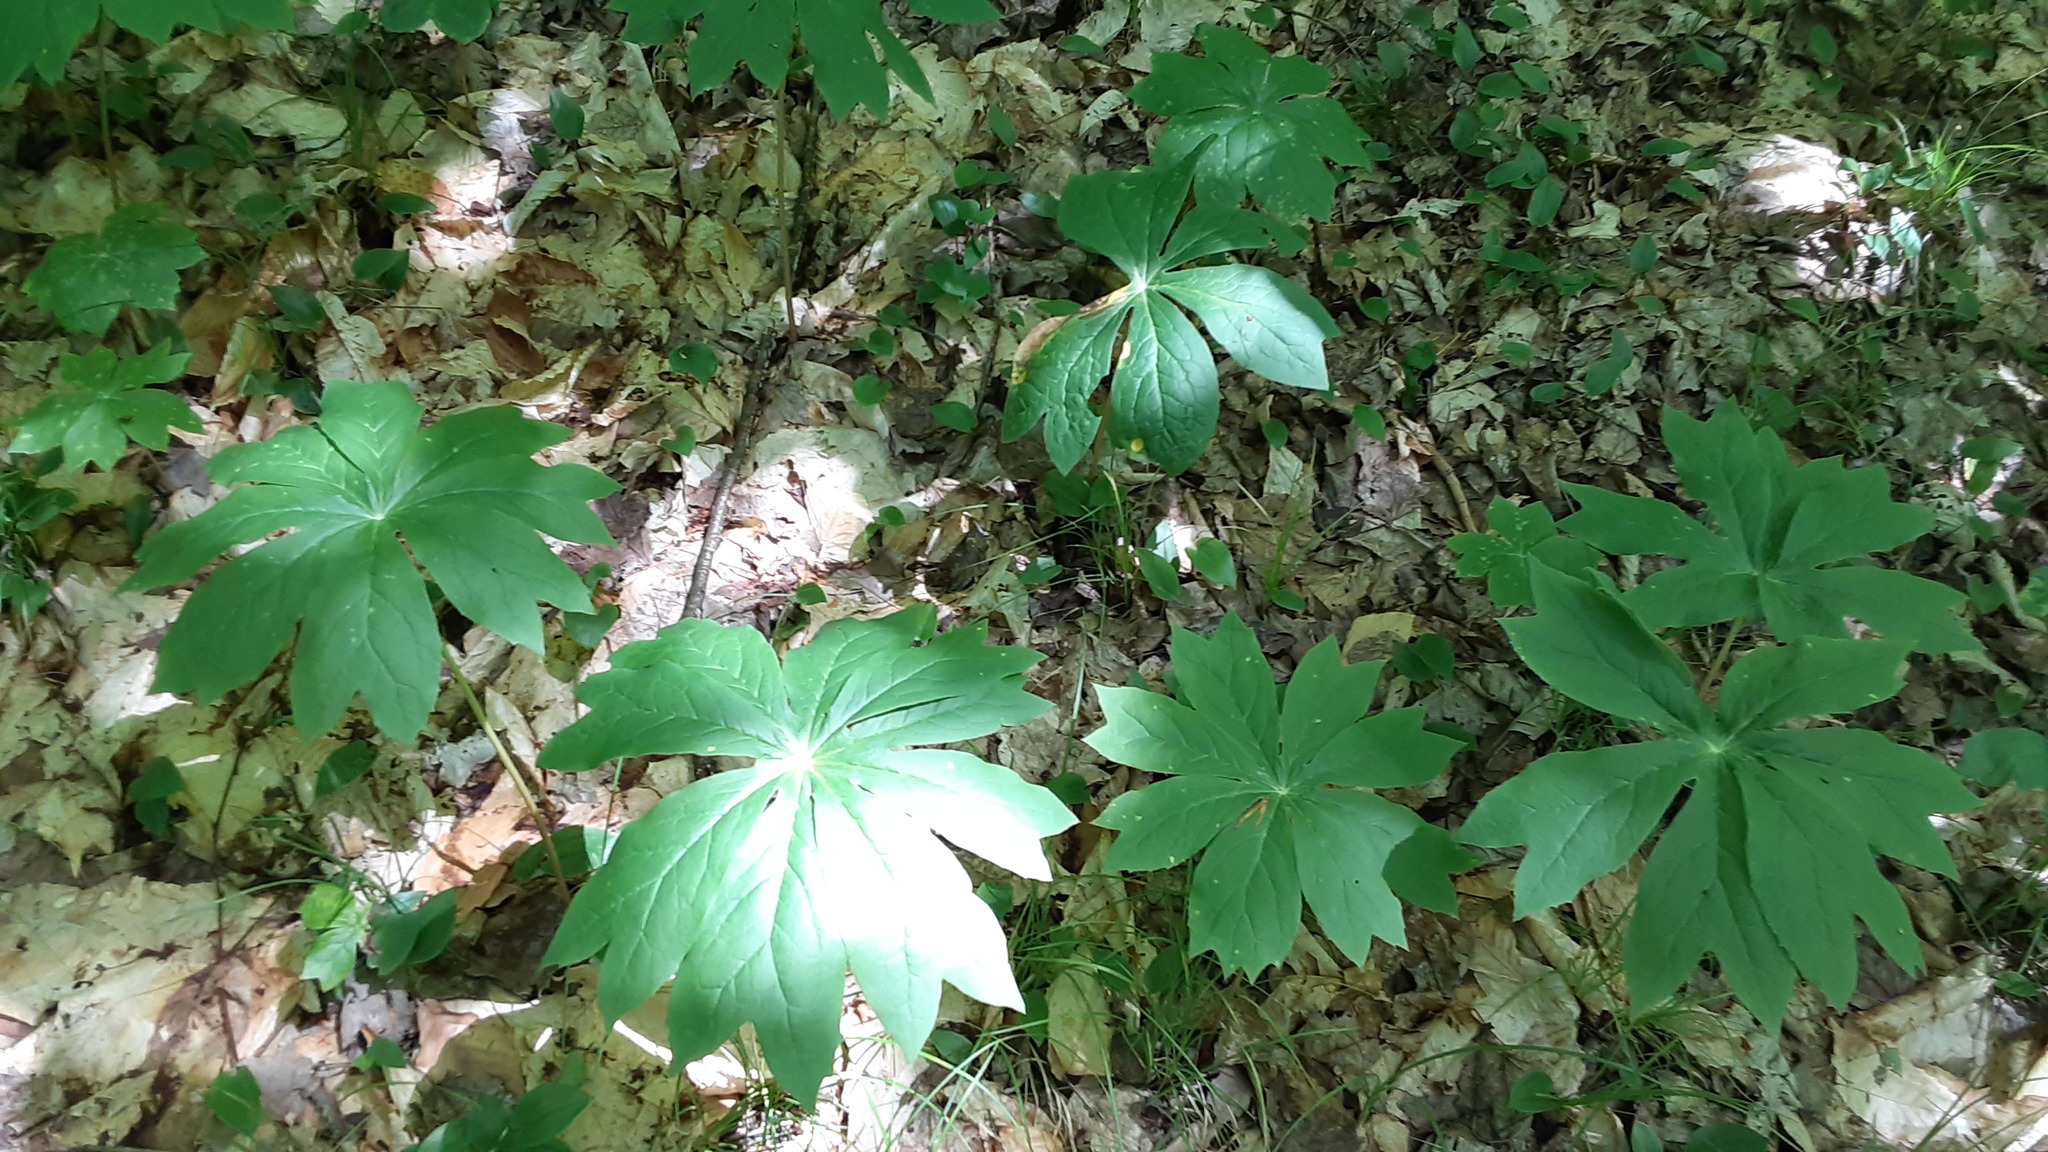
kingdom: Plantae
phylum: Tracheophyta
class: Magnoliopsida
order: Ranunculales
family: Berberidaceae
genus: Podophyllum
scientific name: Podophyllum peltatum
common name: Wild mandrake
